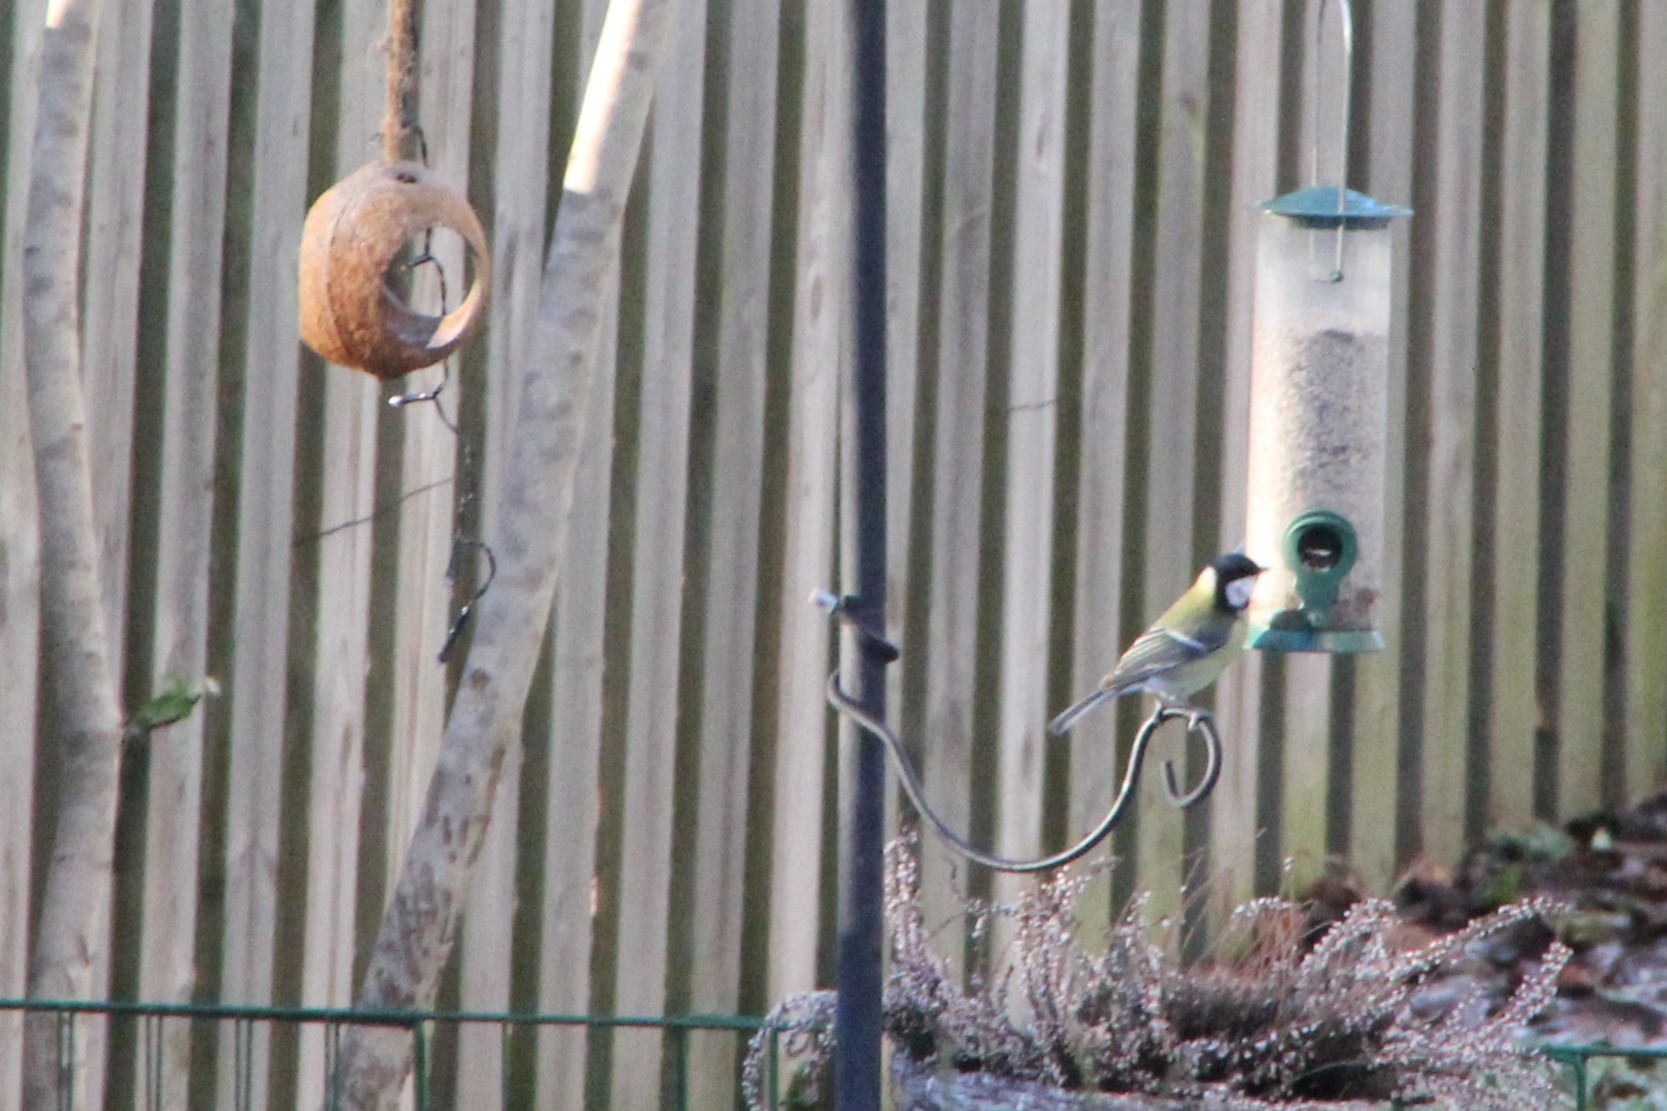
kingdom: Animalia
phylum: Chordata
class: Aves
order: Passeriformes
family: Paridae
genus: Parus
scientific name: Parus major
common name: Great tit
